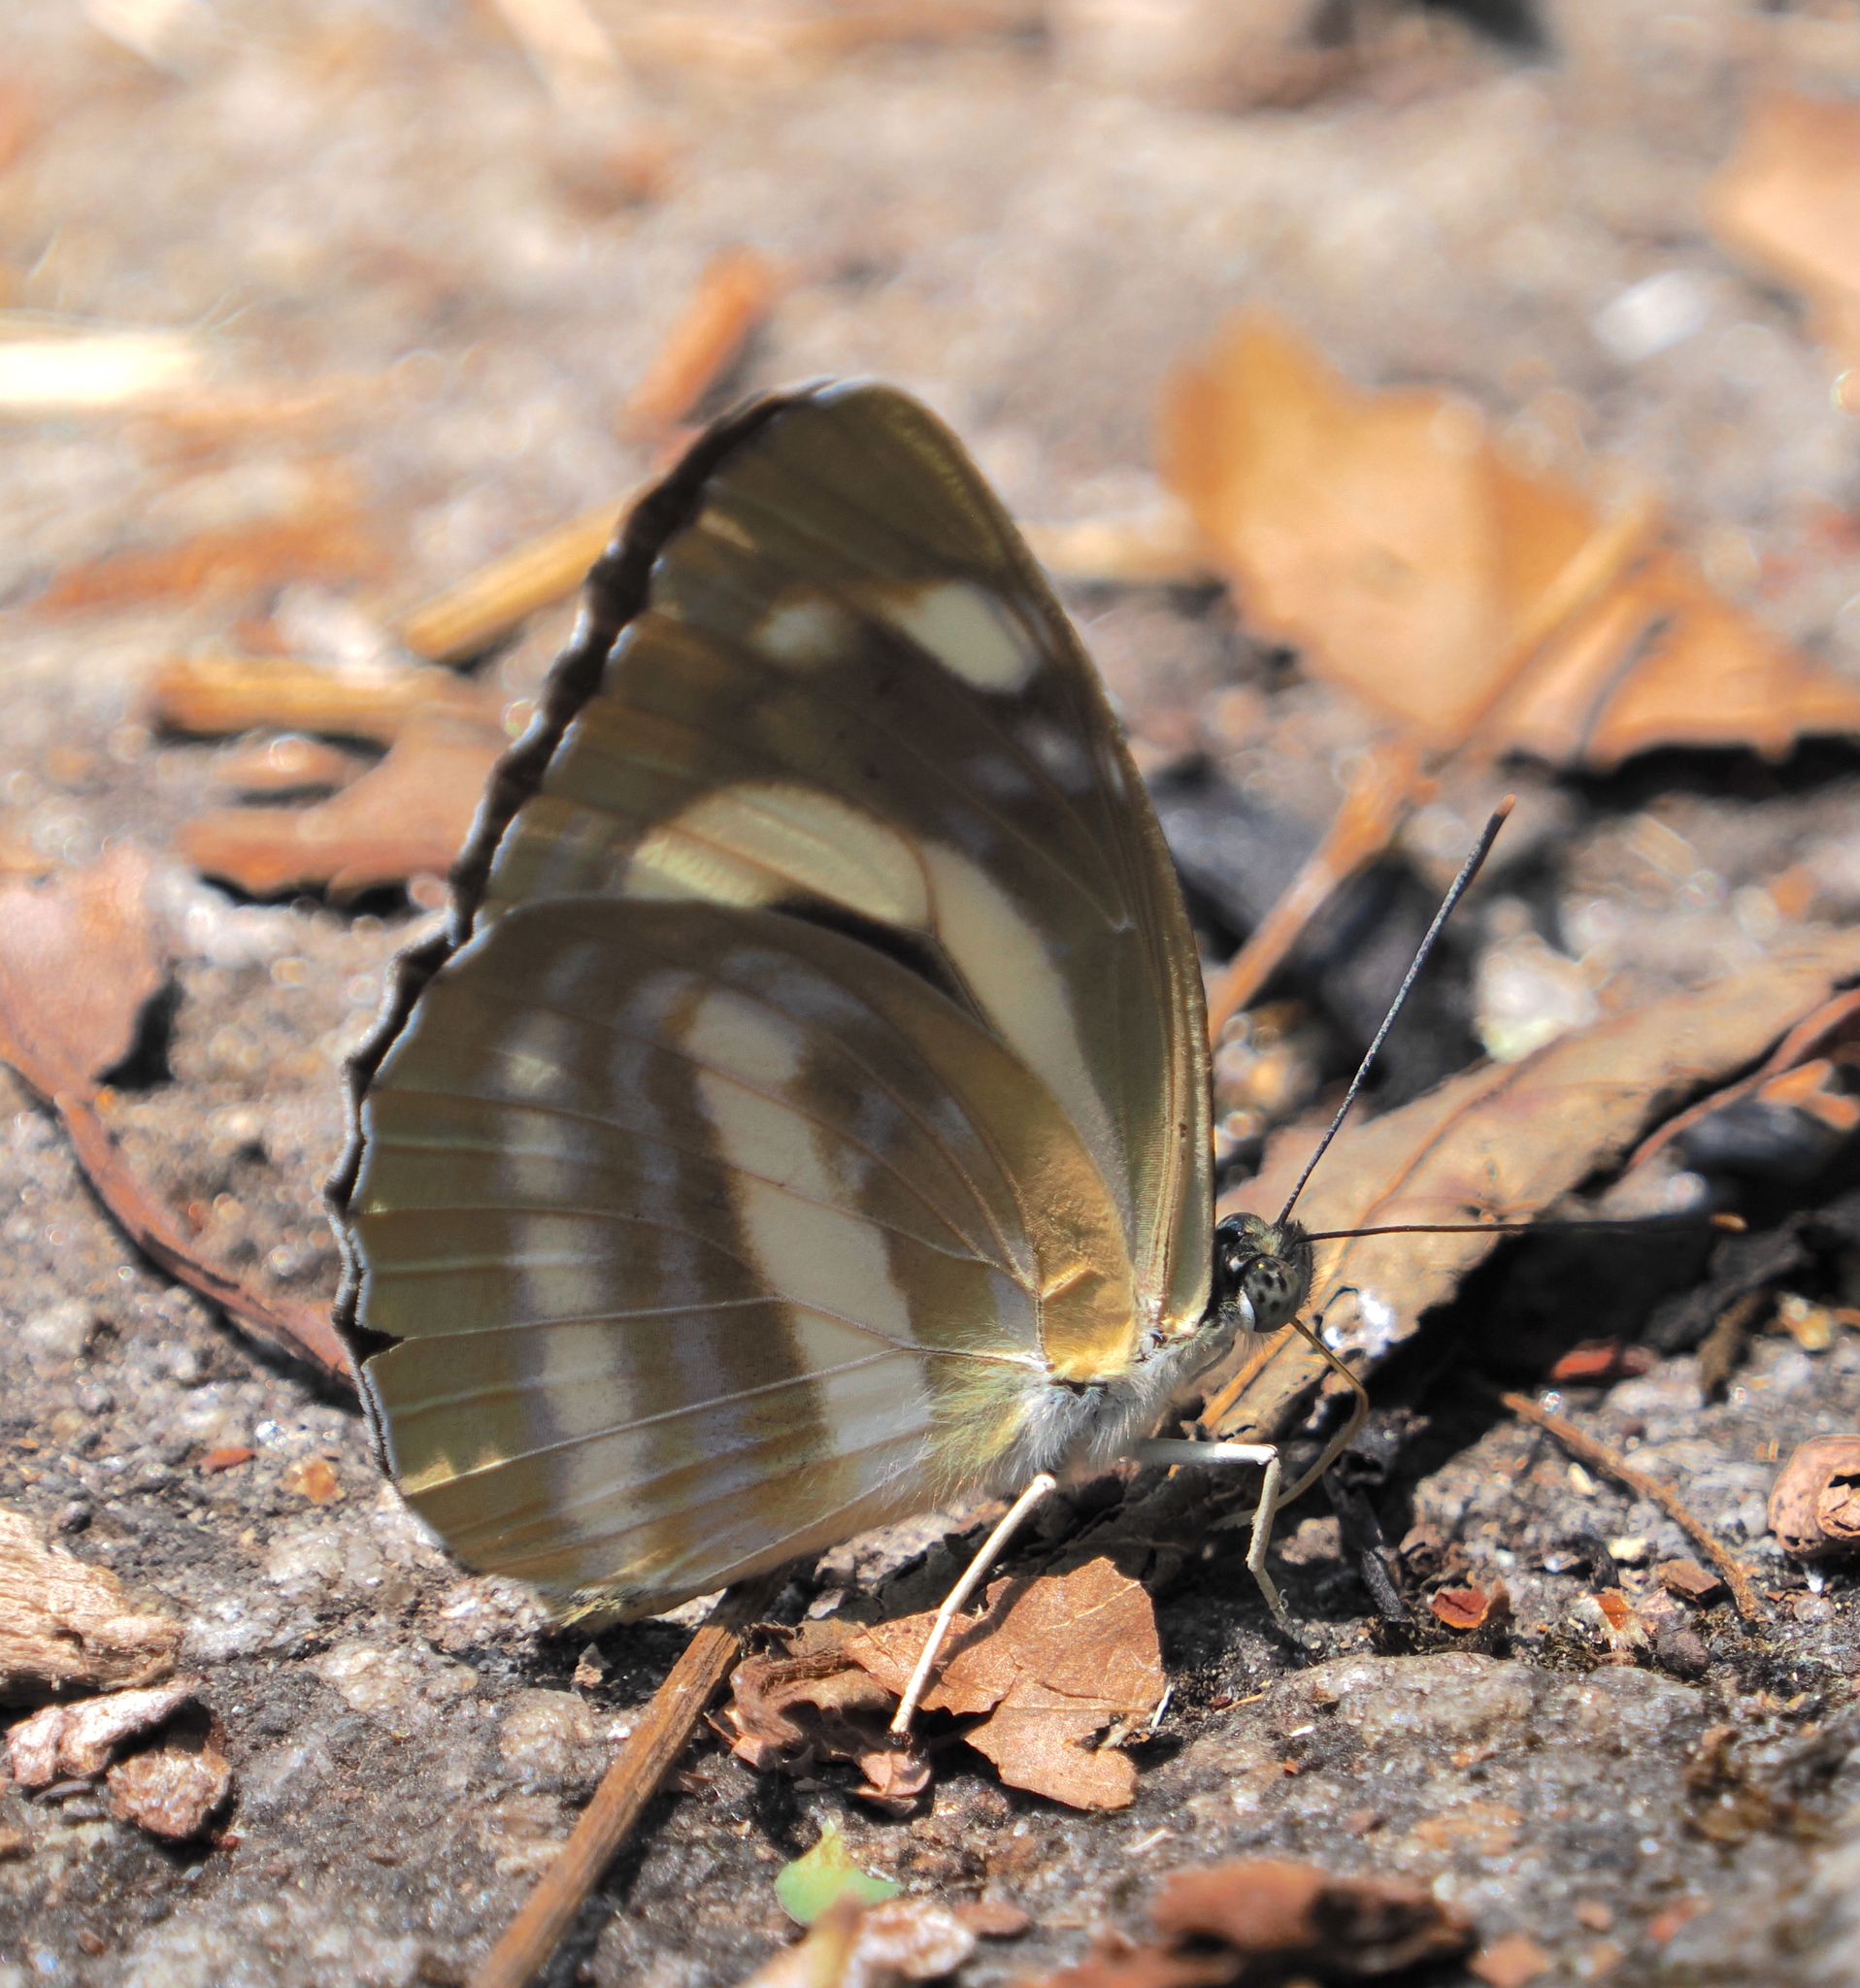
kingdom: Animalia
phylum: Arthropoda
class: Insecta
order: Lepidoptera
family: Nymphalidae
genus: Neptis
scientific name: Neptis manasa
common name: Pale hockeystick sailer
